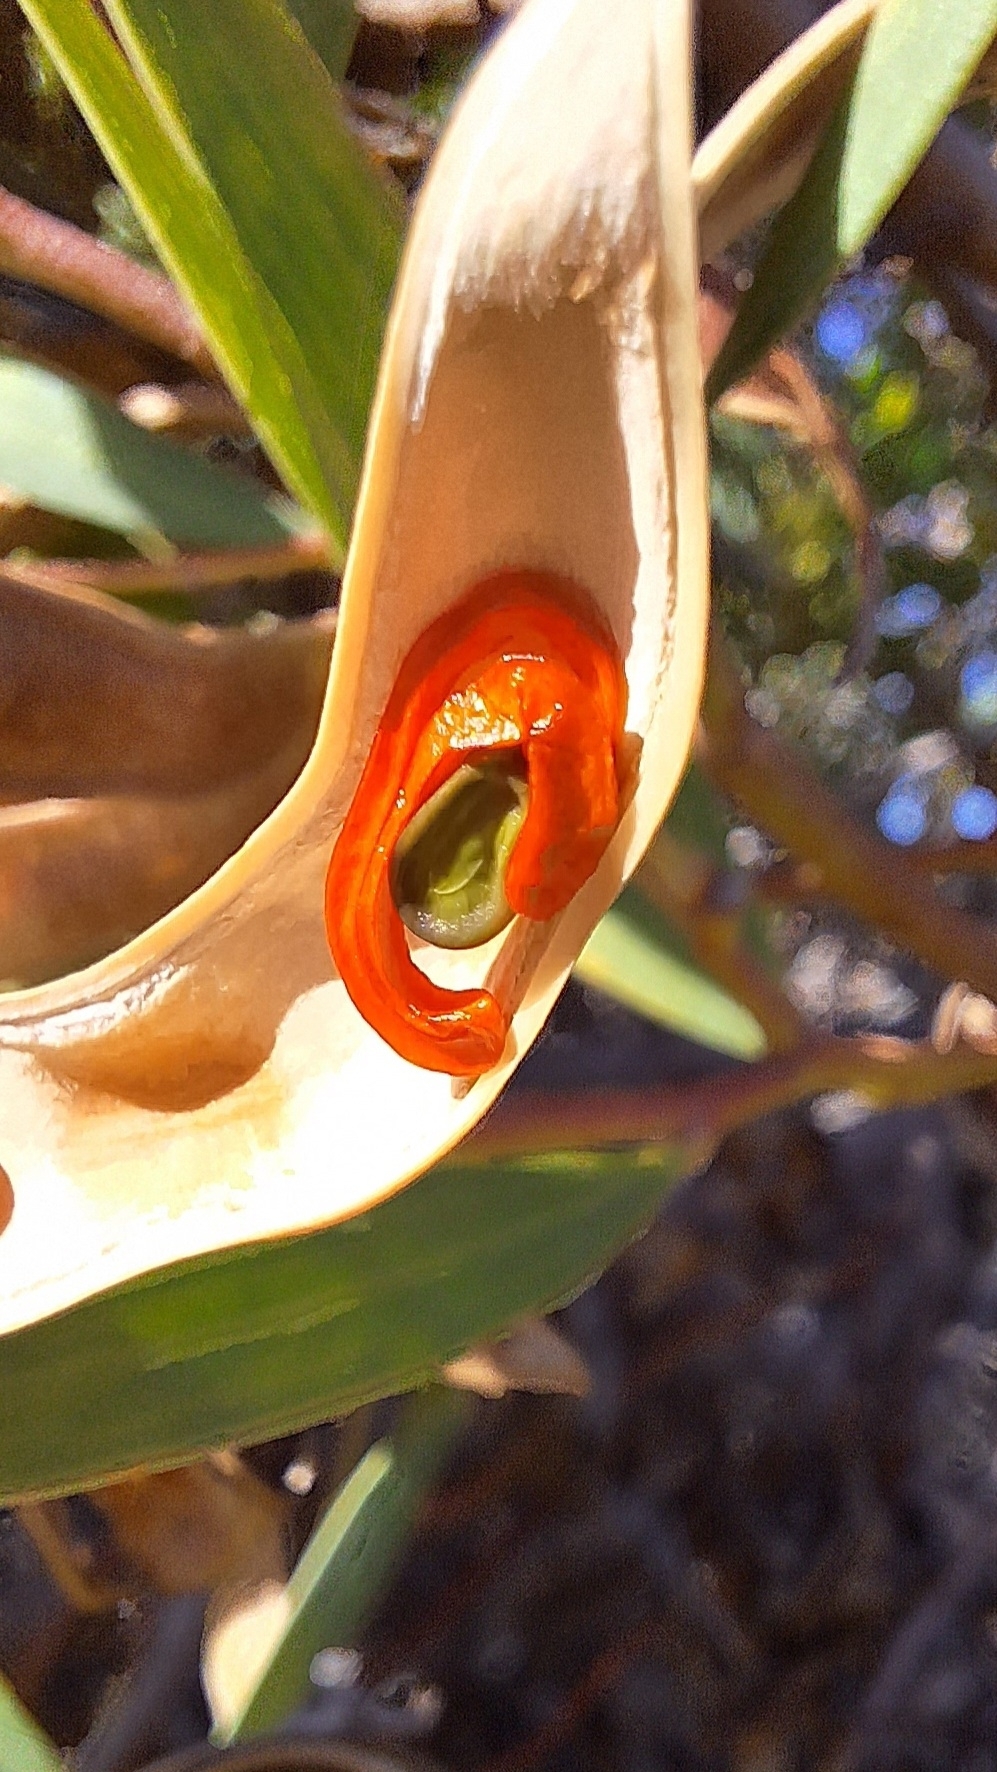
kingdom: Plantae
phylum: Tracheophyta
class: Magnoliopsida
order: Fabales
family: Fabaceae
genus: Acacia
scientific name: Acacia cyclops
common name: Coastal wattle
